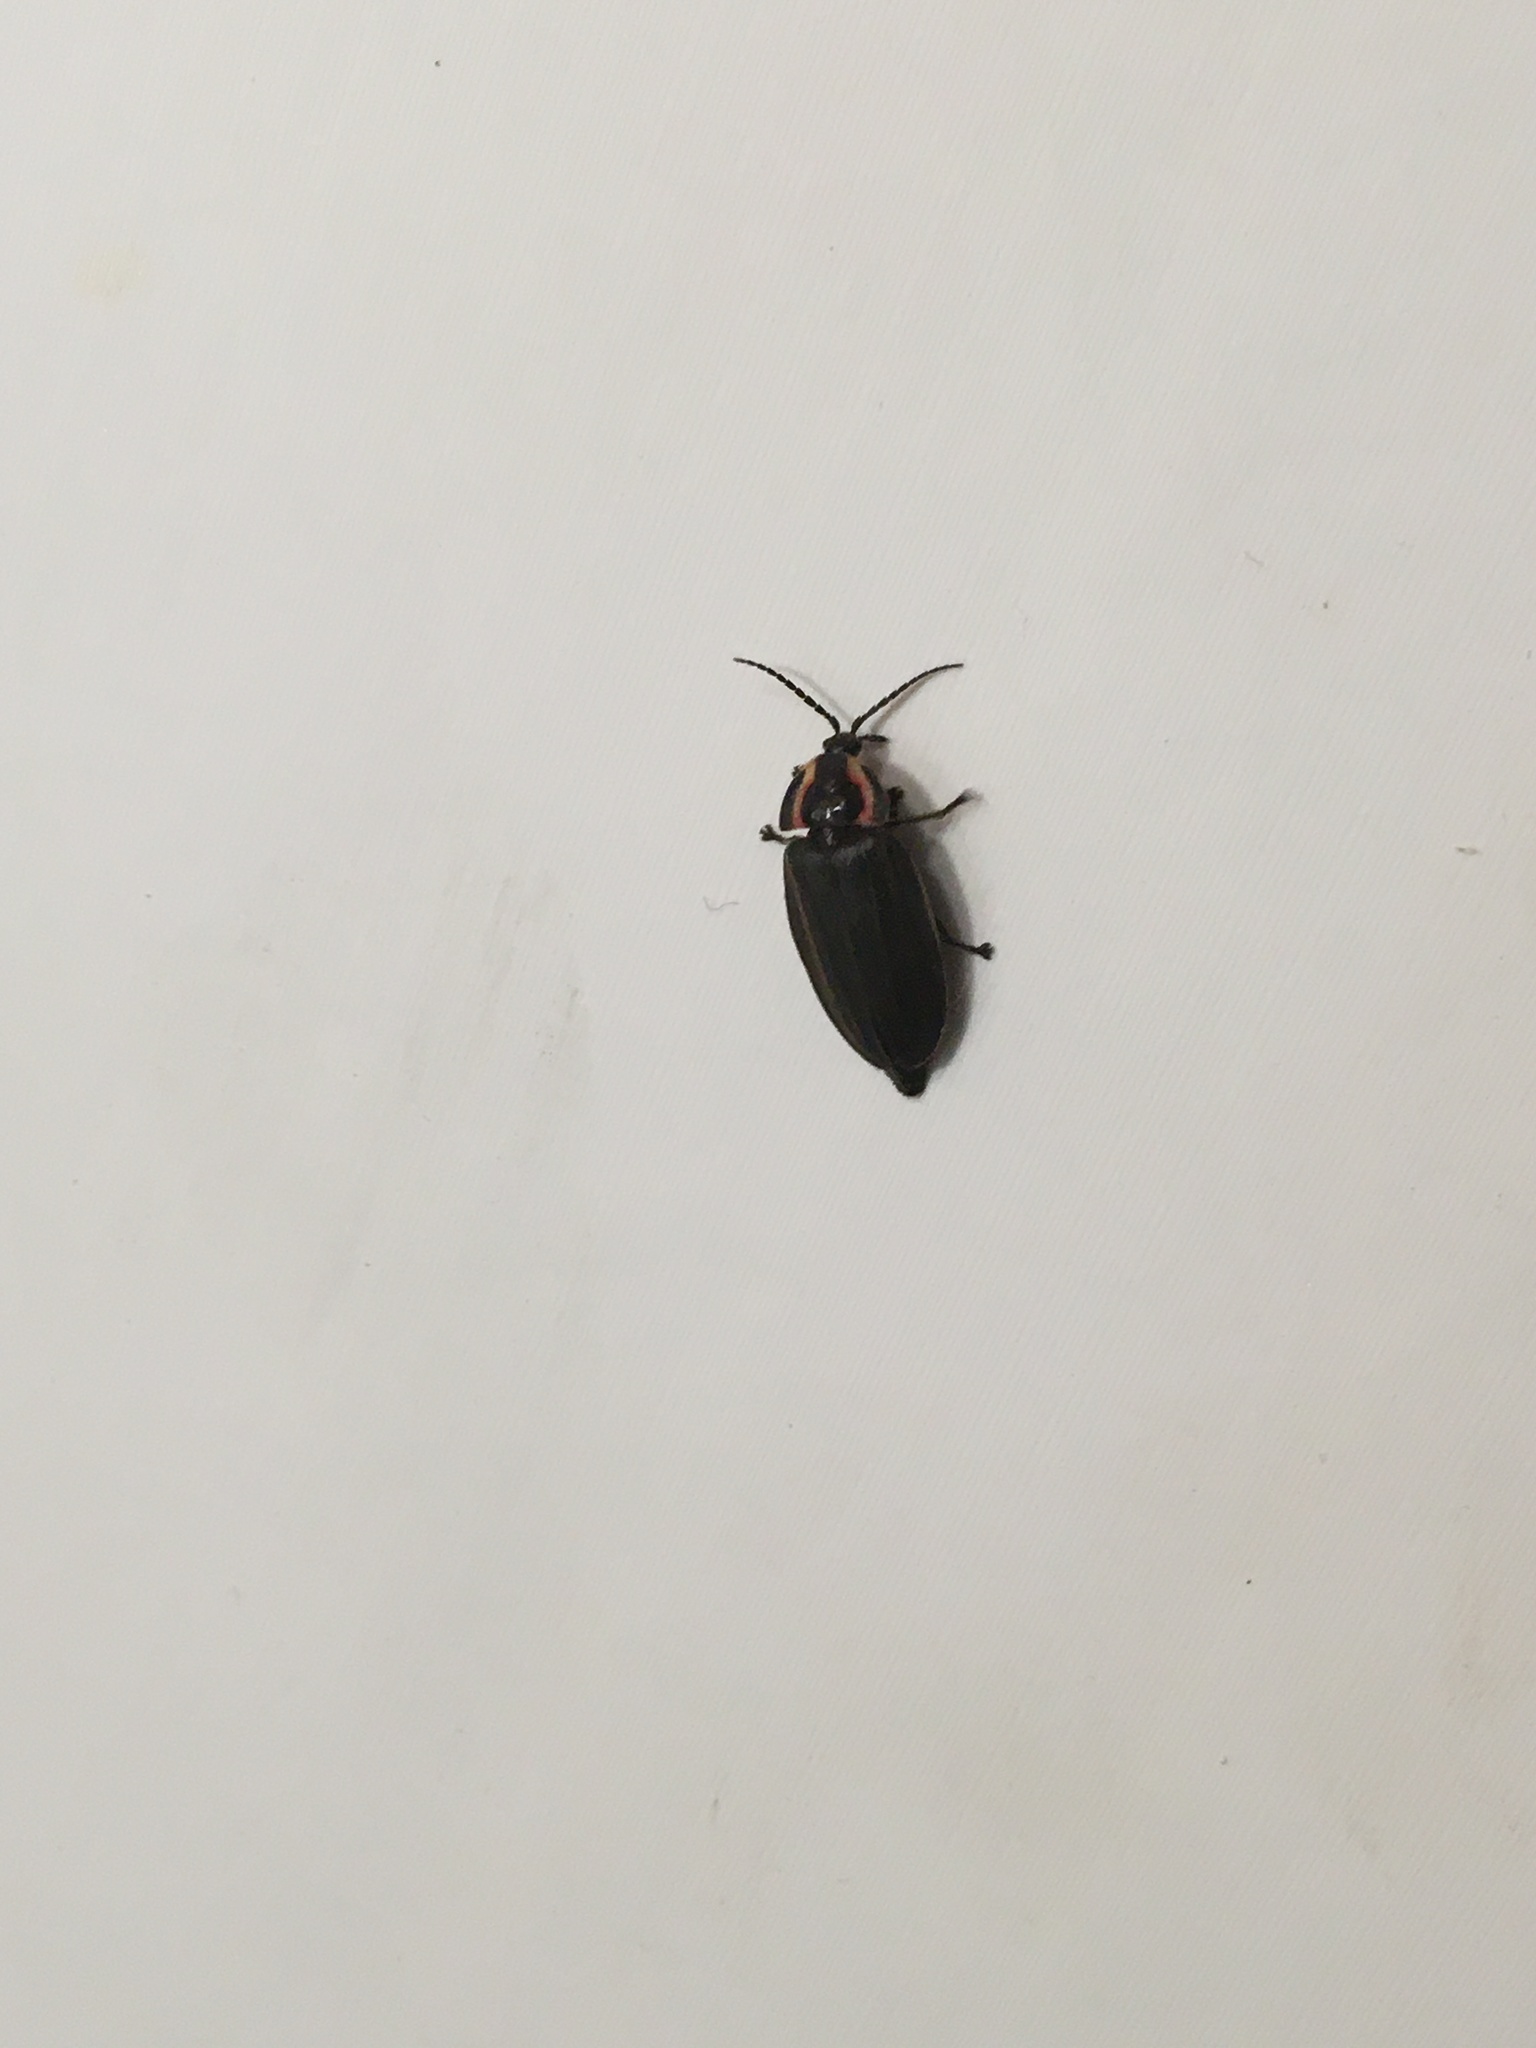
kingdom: Animalia
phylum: Arthropoda
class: Insecta
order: Coleoptera
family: Lampyridae
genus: Photinus
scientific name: Photinus corrusca
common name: Winter firefly
